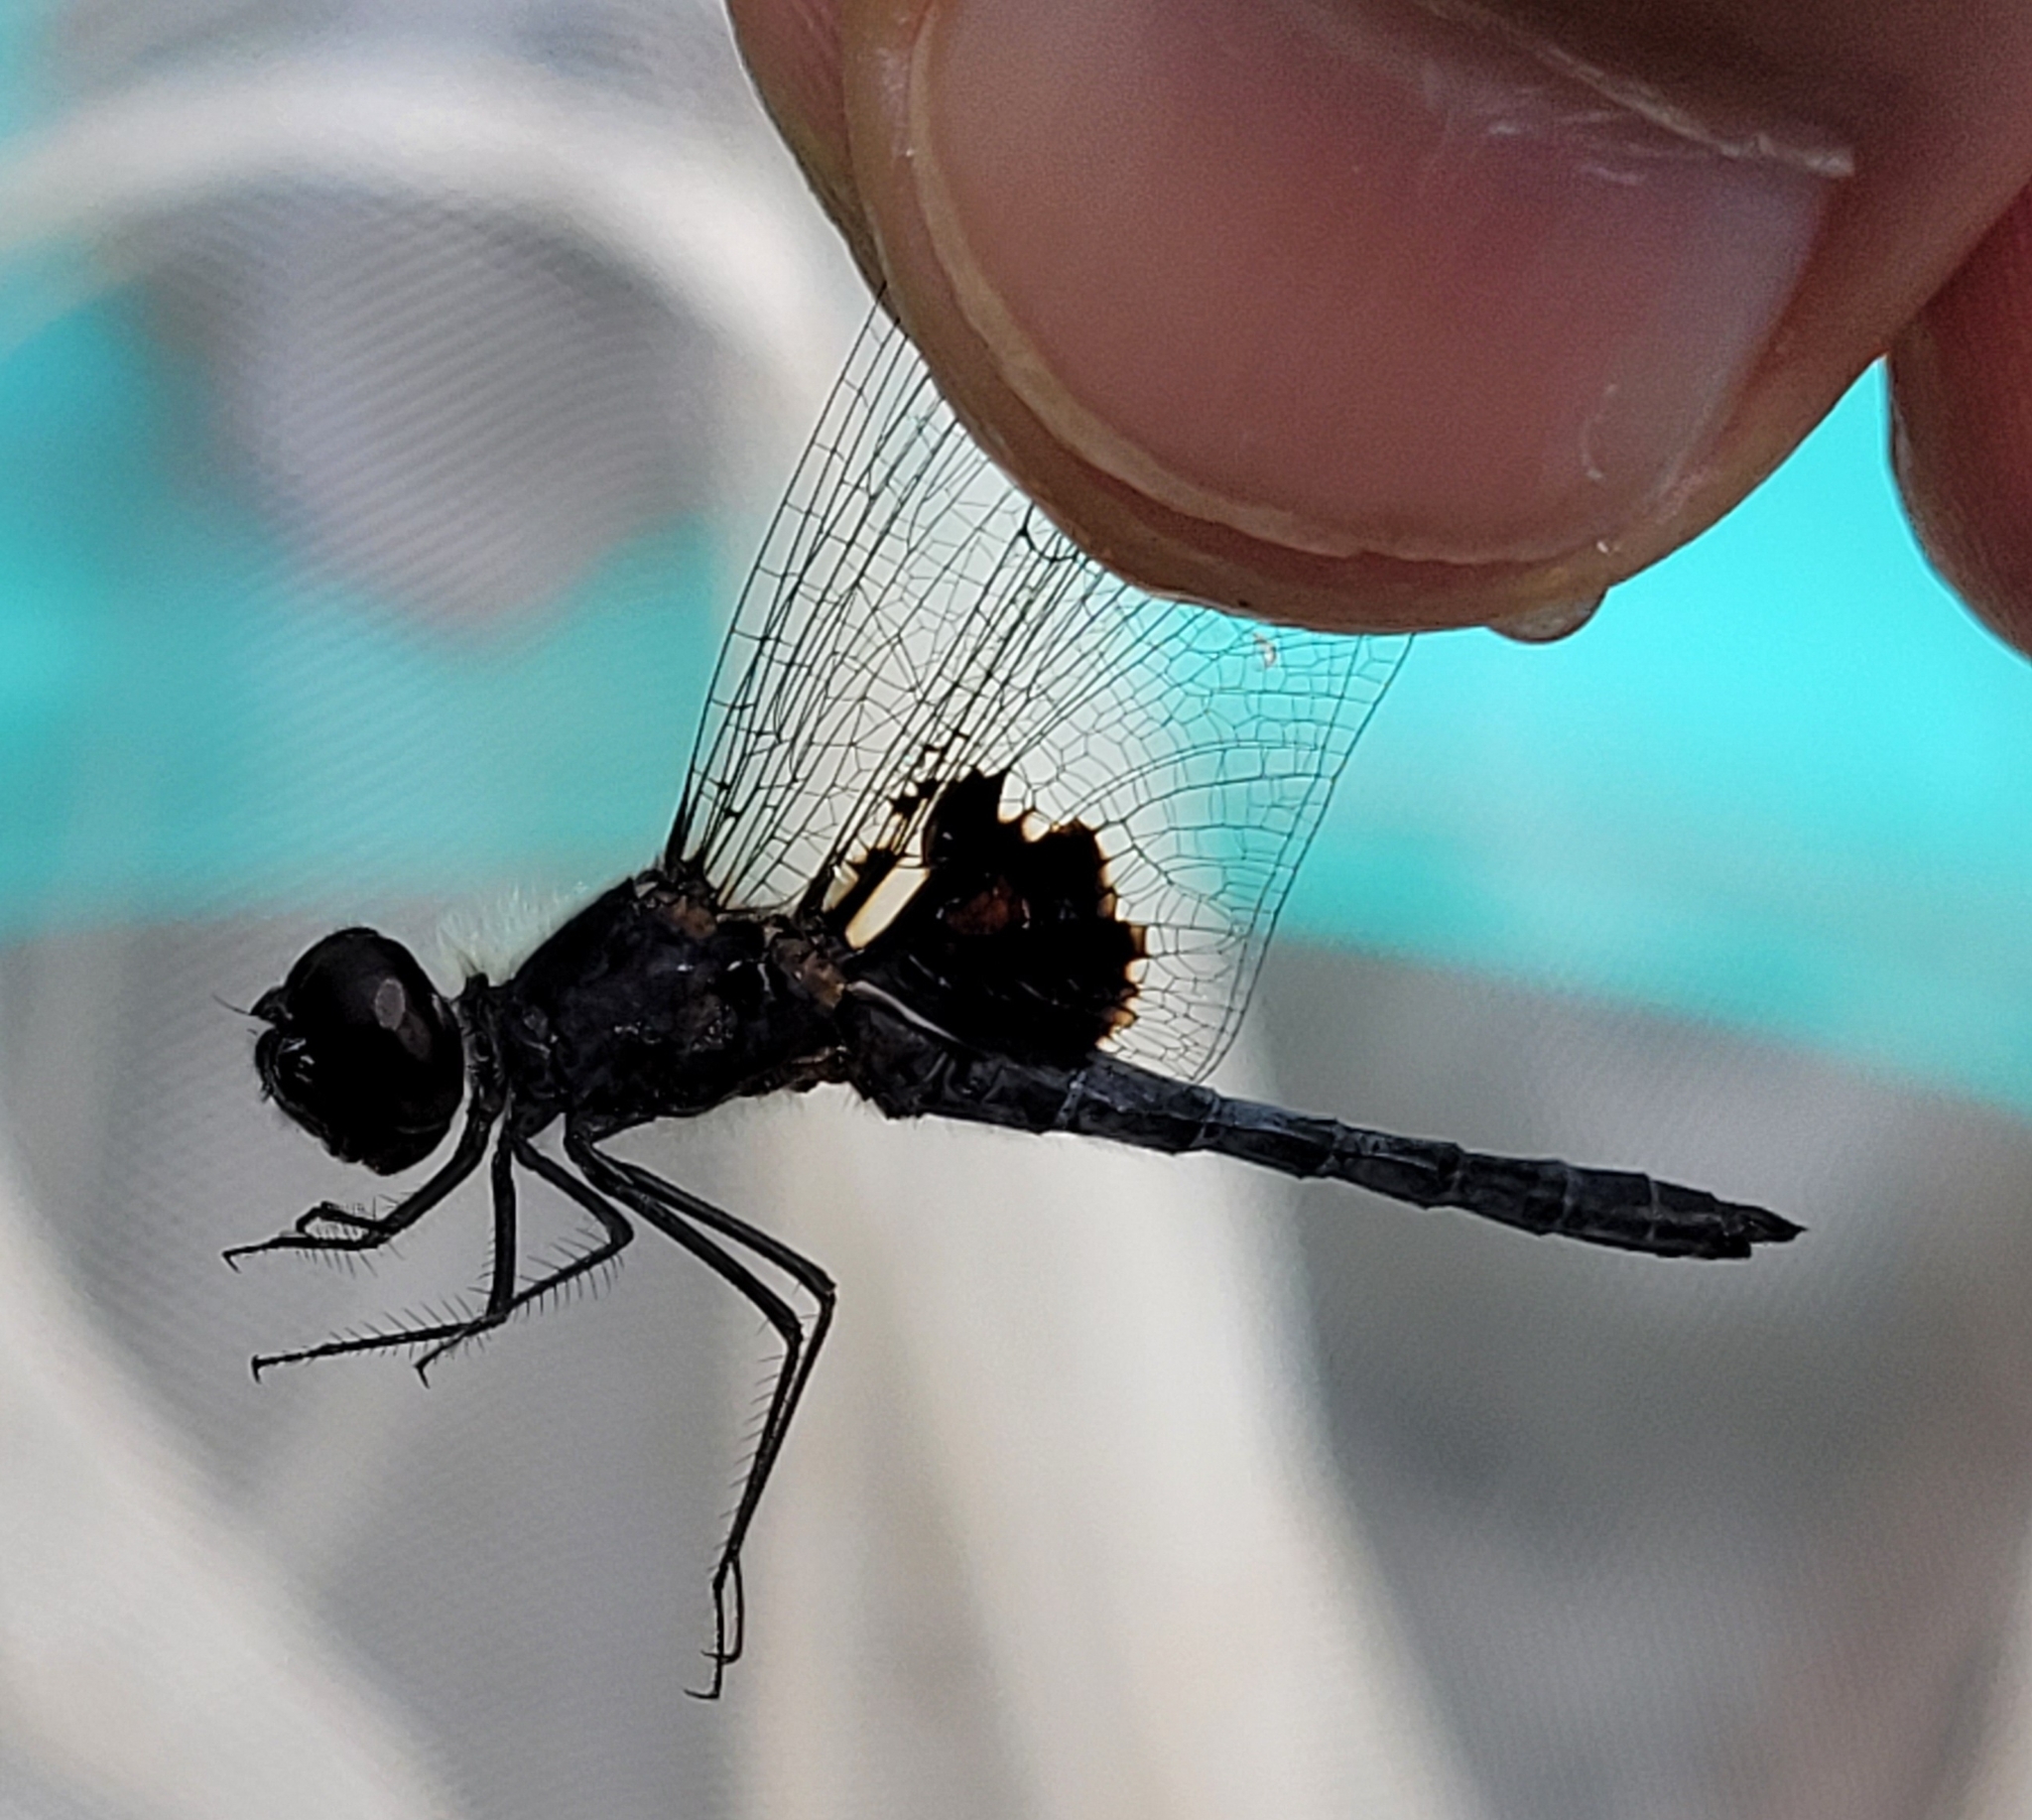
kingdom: Animalia
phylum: Arthropoda
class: Insecta
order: Odonata
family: Libellulidae
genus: Celithemis
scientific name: Celithemis martha
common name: Martha's pennant
